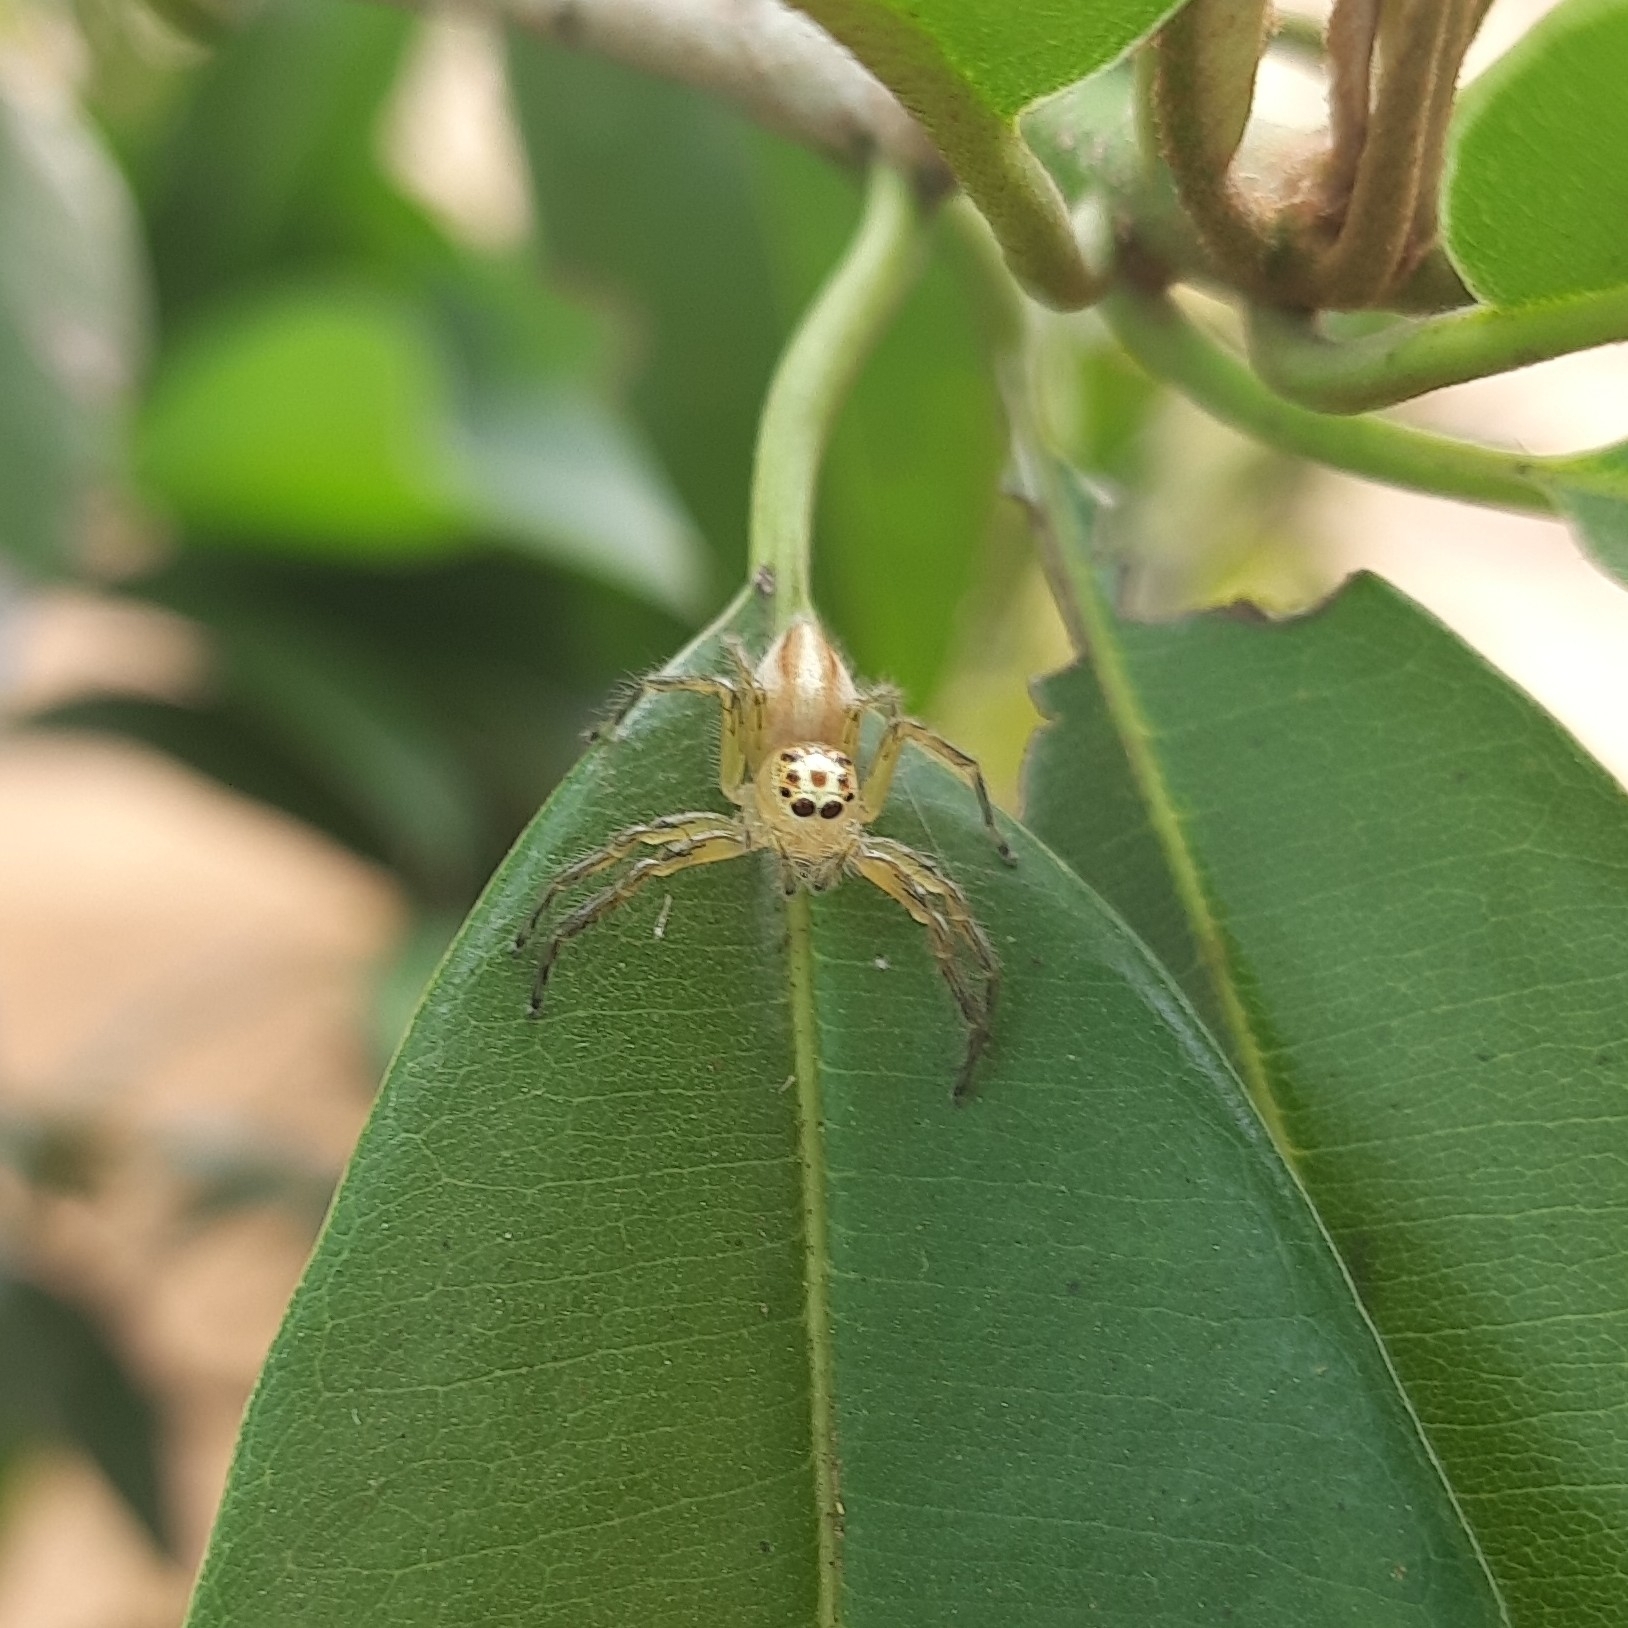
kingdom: Animalia
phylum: Arthropoda
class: Arachnida
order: Araneae
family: Salticidae
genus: Telamonia
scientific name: Telamonia dimidiata
